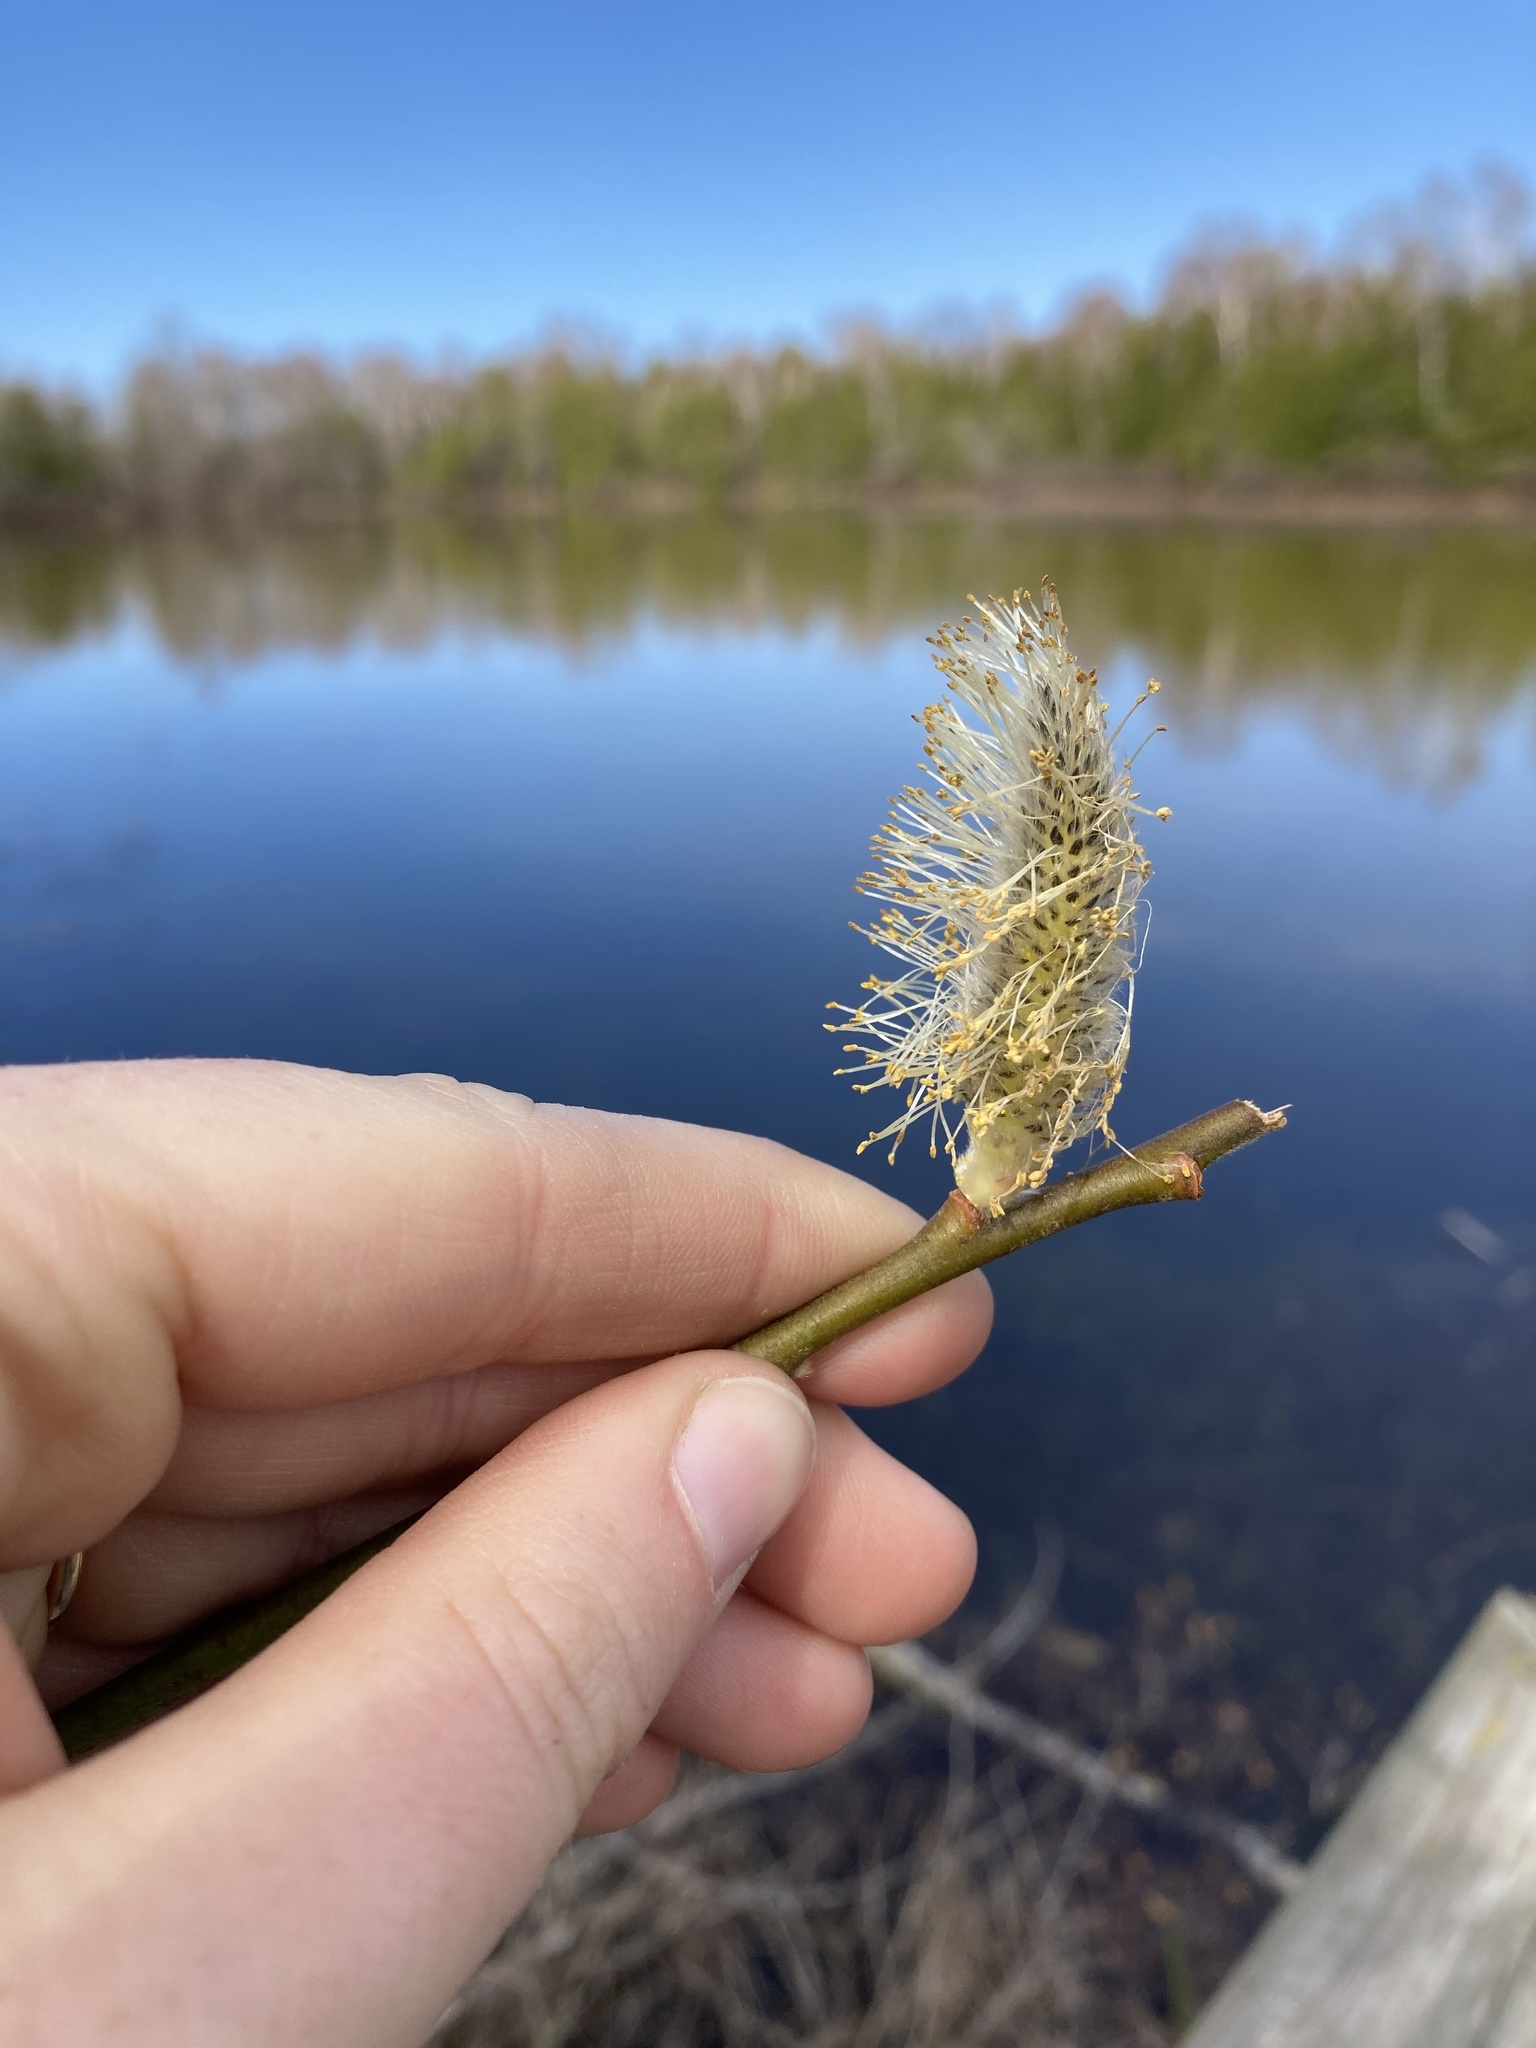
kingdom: Plantae
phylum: Tracheophyta
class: Magnoliopsida
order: Malpighiales
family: Salicaceae
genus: Salix
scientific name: Salix discolor
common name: Glaucous willow
